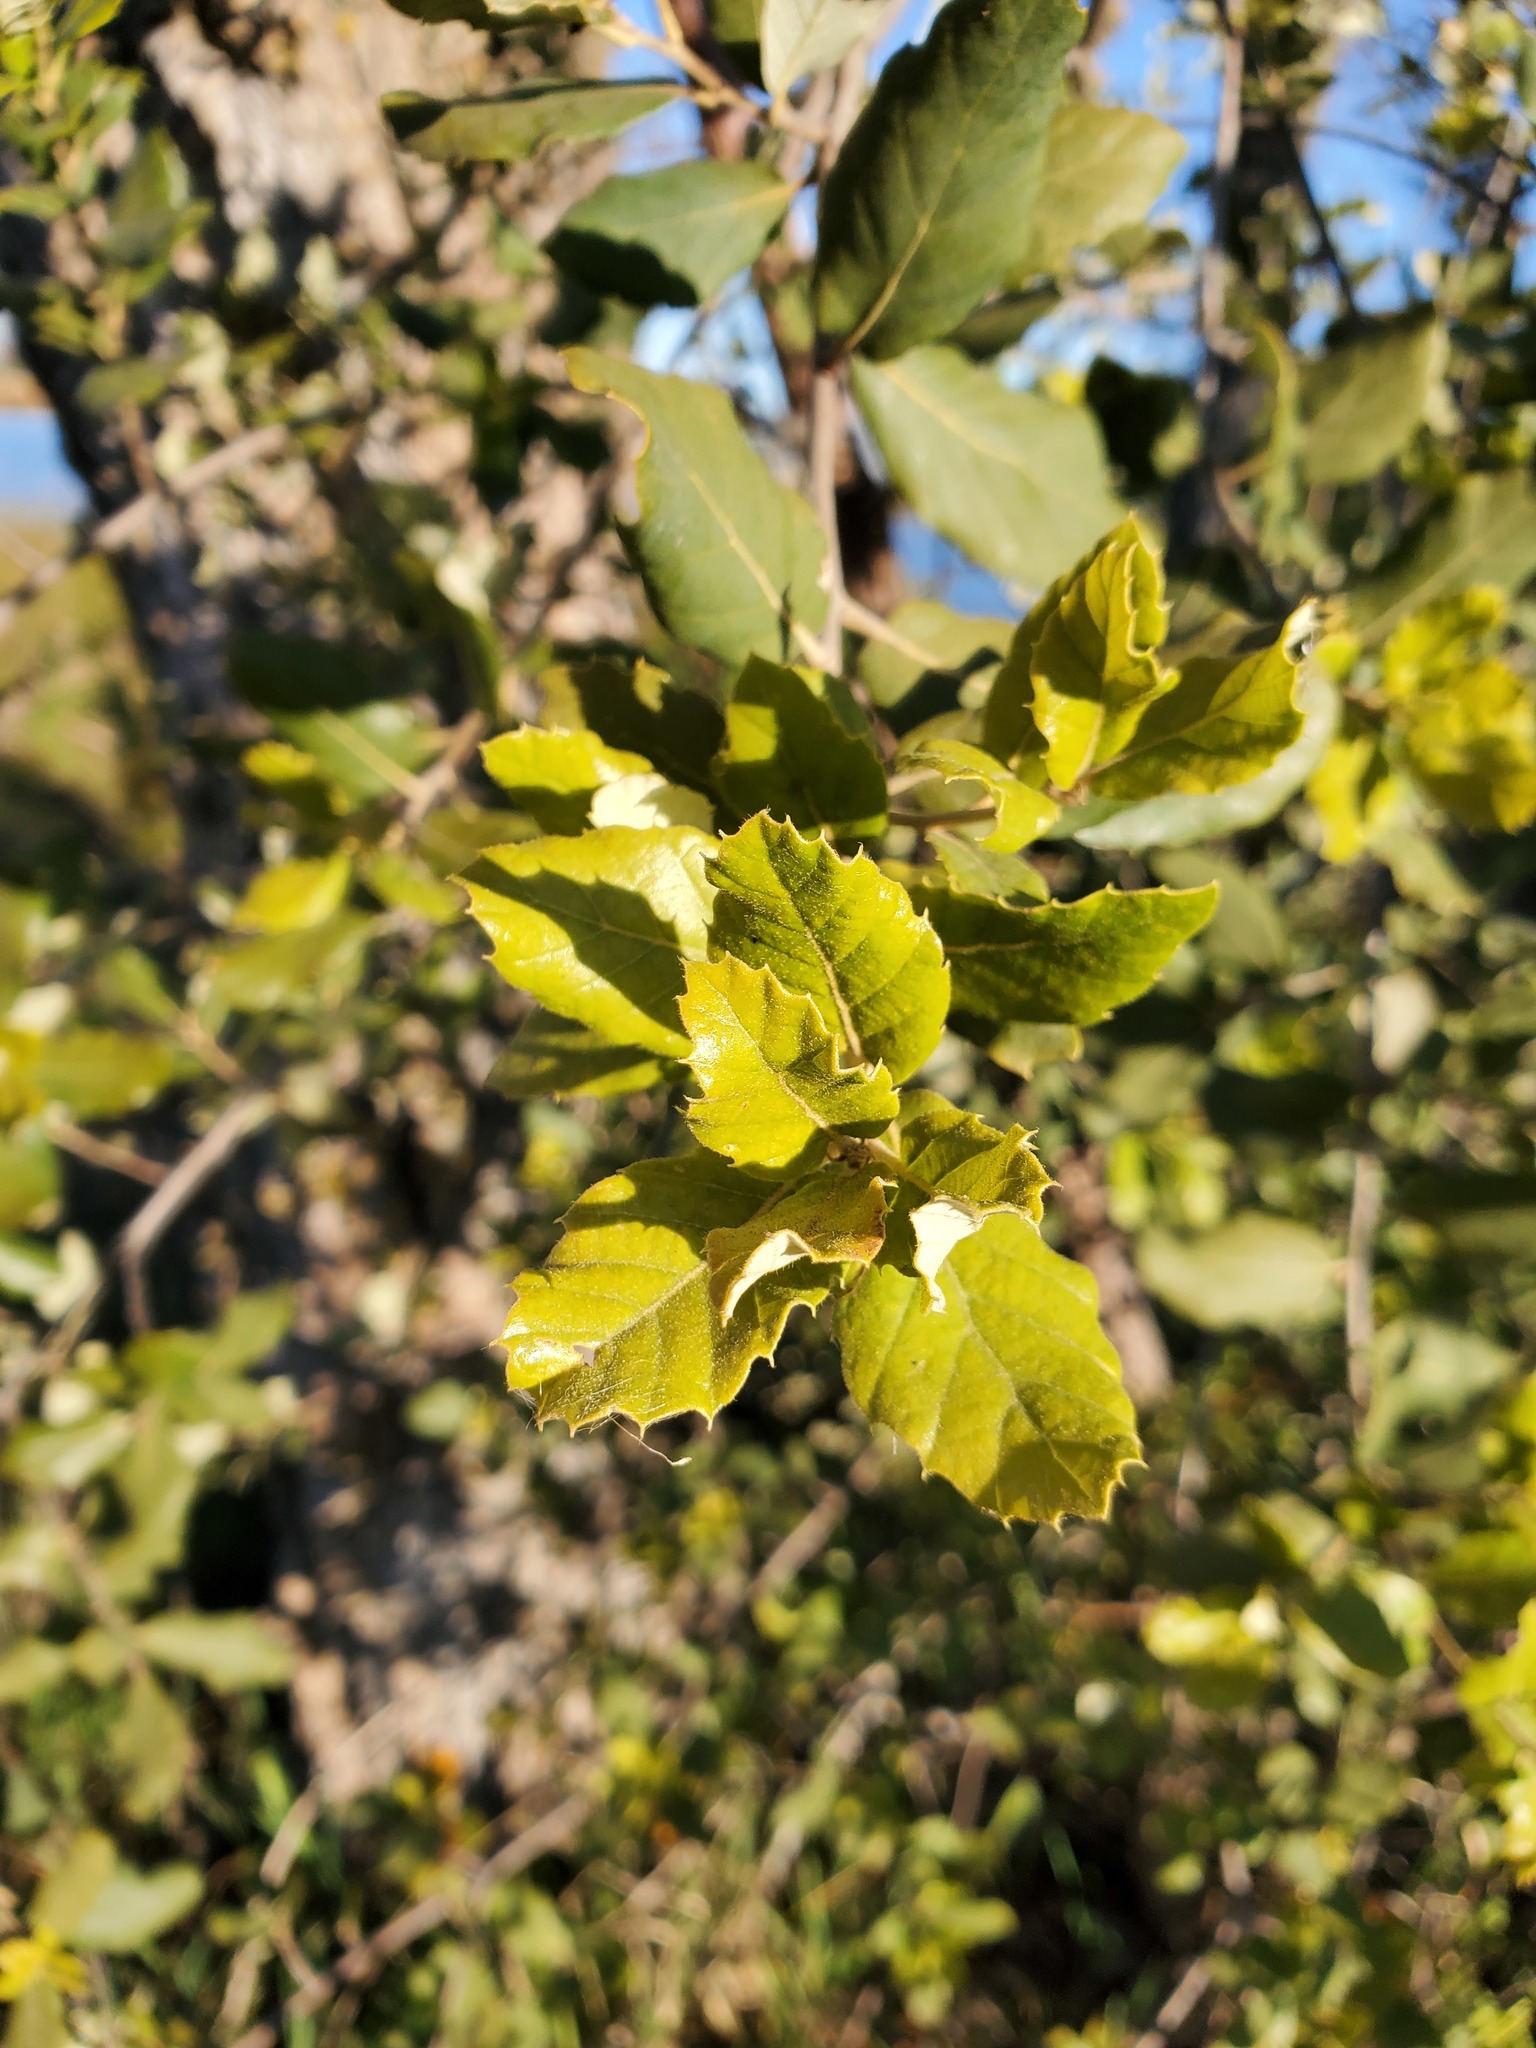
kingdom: Plantae
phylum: Tracheophyta
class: Magnoliopsida
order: Fagales
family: Fagaceae
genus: Quercus
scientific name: Quercus suber
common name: Cork oak
